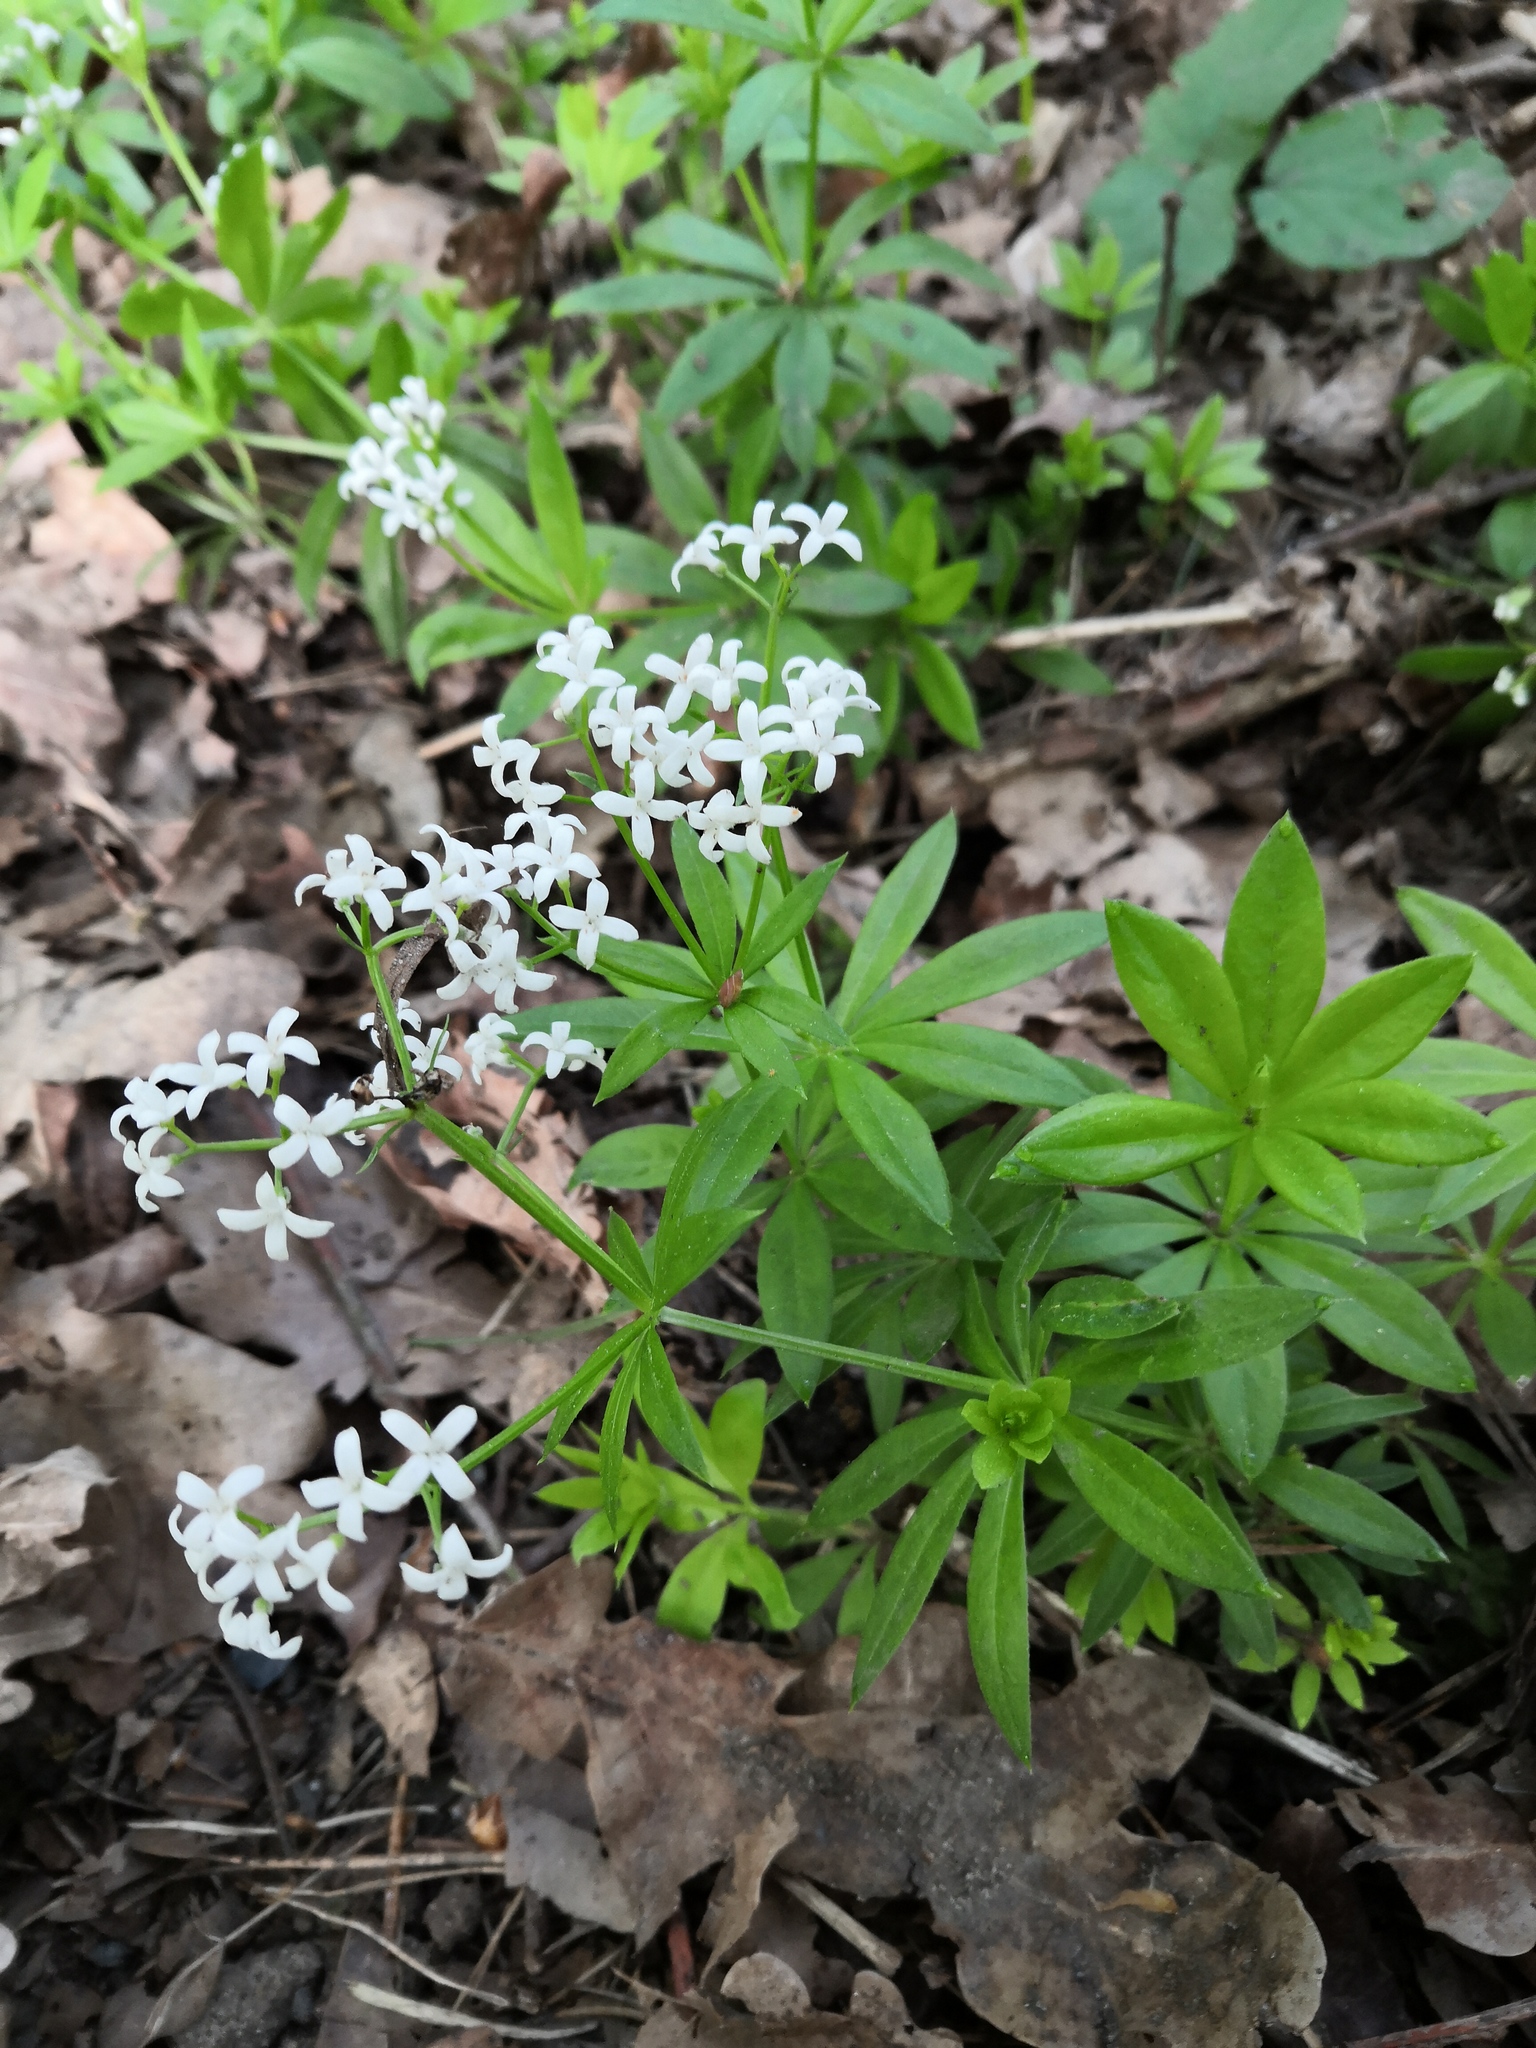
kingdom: Plantae
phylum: Tracheophyta
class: Magnoliopsida
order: Gentianales
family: Rubiaceae
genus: Galium
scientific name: Galium odoratum
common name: Sweet woodruff
